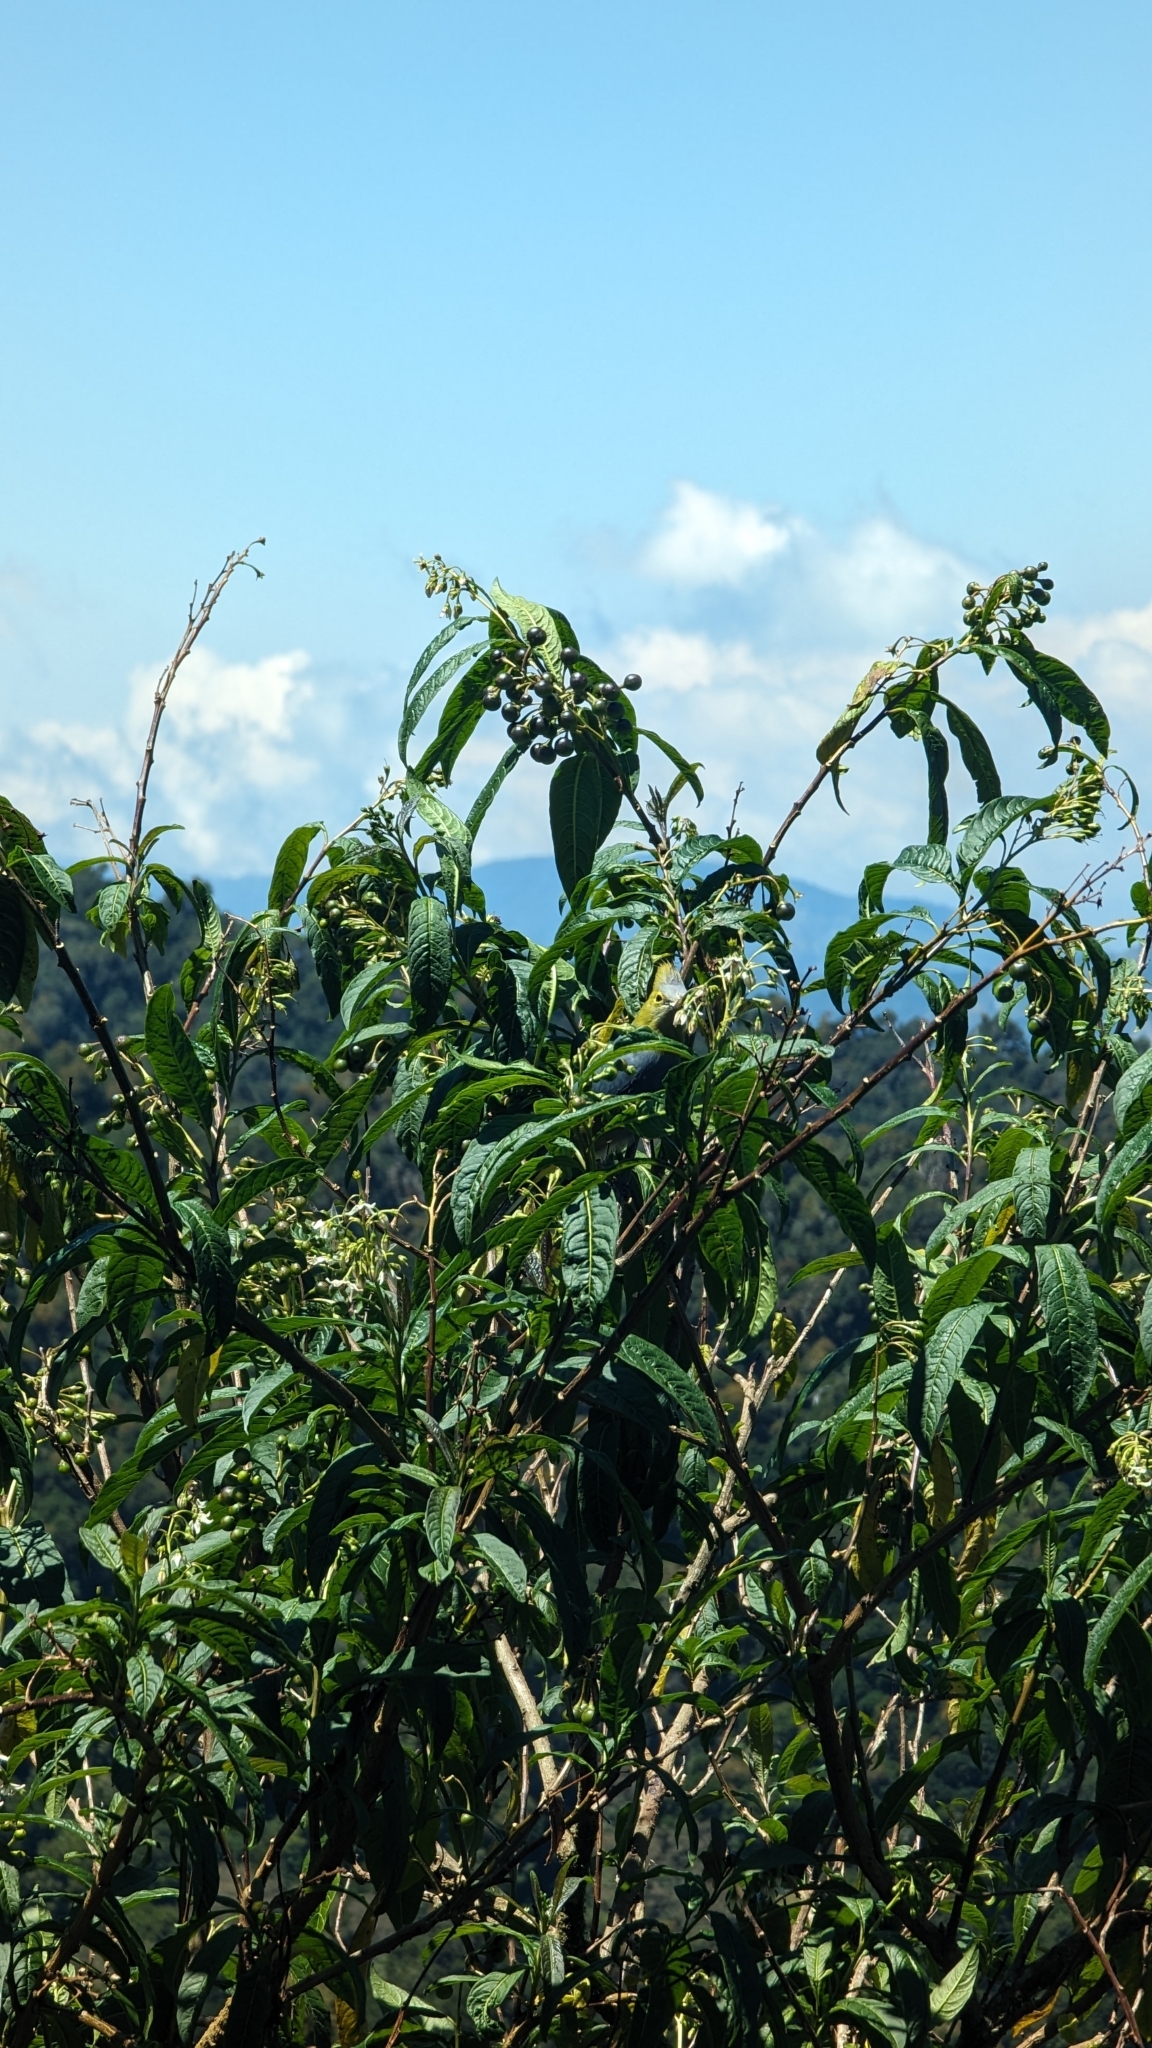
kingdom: Animalia
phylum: Chordata
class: Aves
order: Passeriformes
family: Ptilogonatidae
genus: Ptilogonys
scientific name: Ptilogonys caudatus
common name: Long-tailed silky-flycatcher
